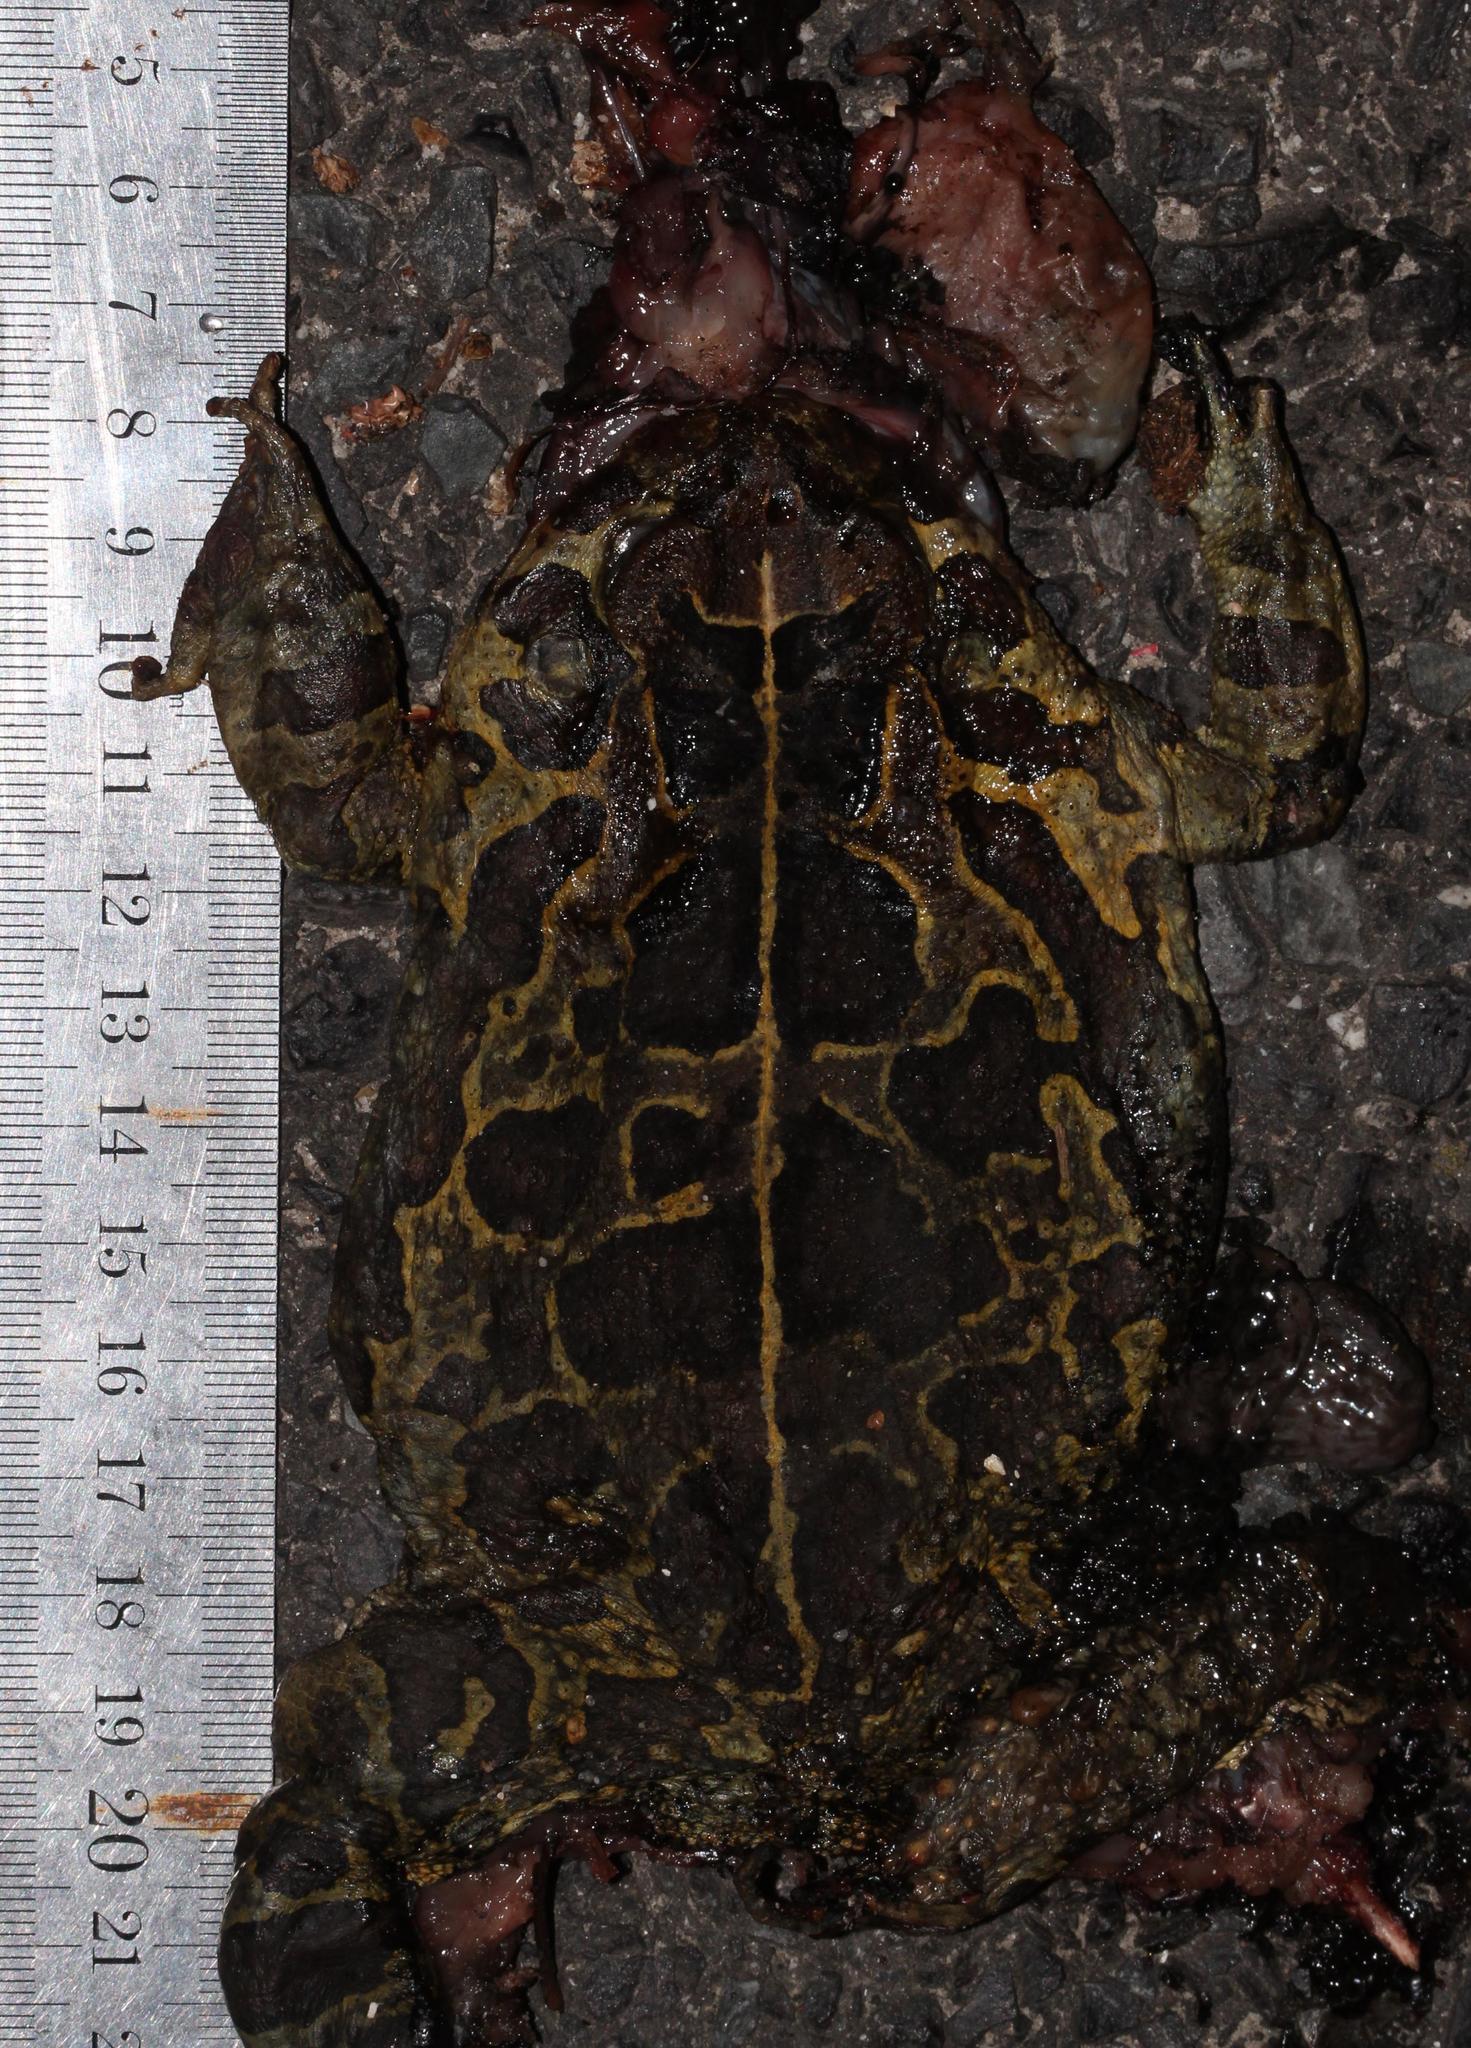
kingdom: Animalia
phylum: Chordata
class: Amphibia
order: Anura
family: Bufonidae
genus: Sclerophrys
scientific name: Sclerophrys pantherina
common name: Panther toad
